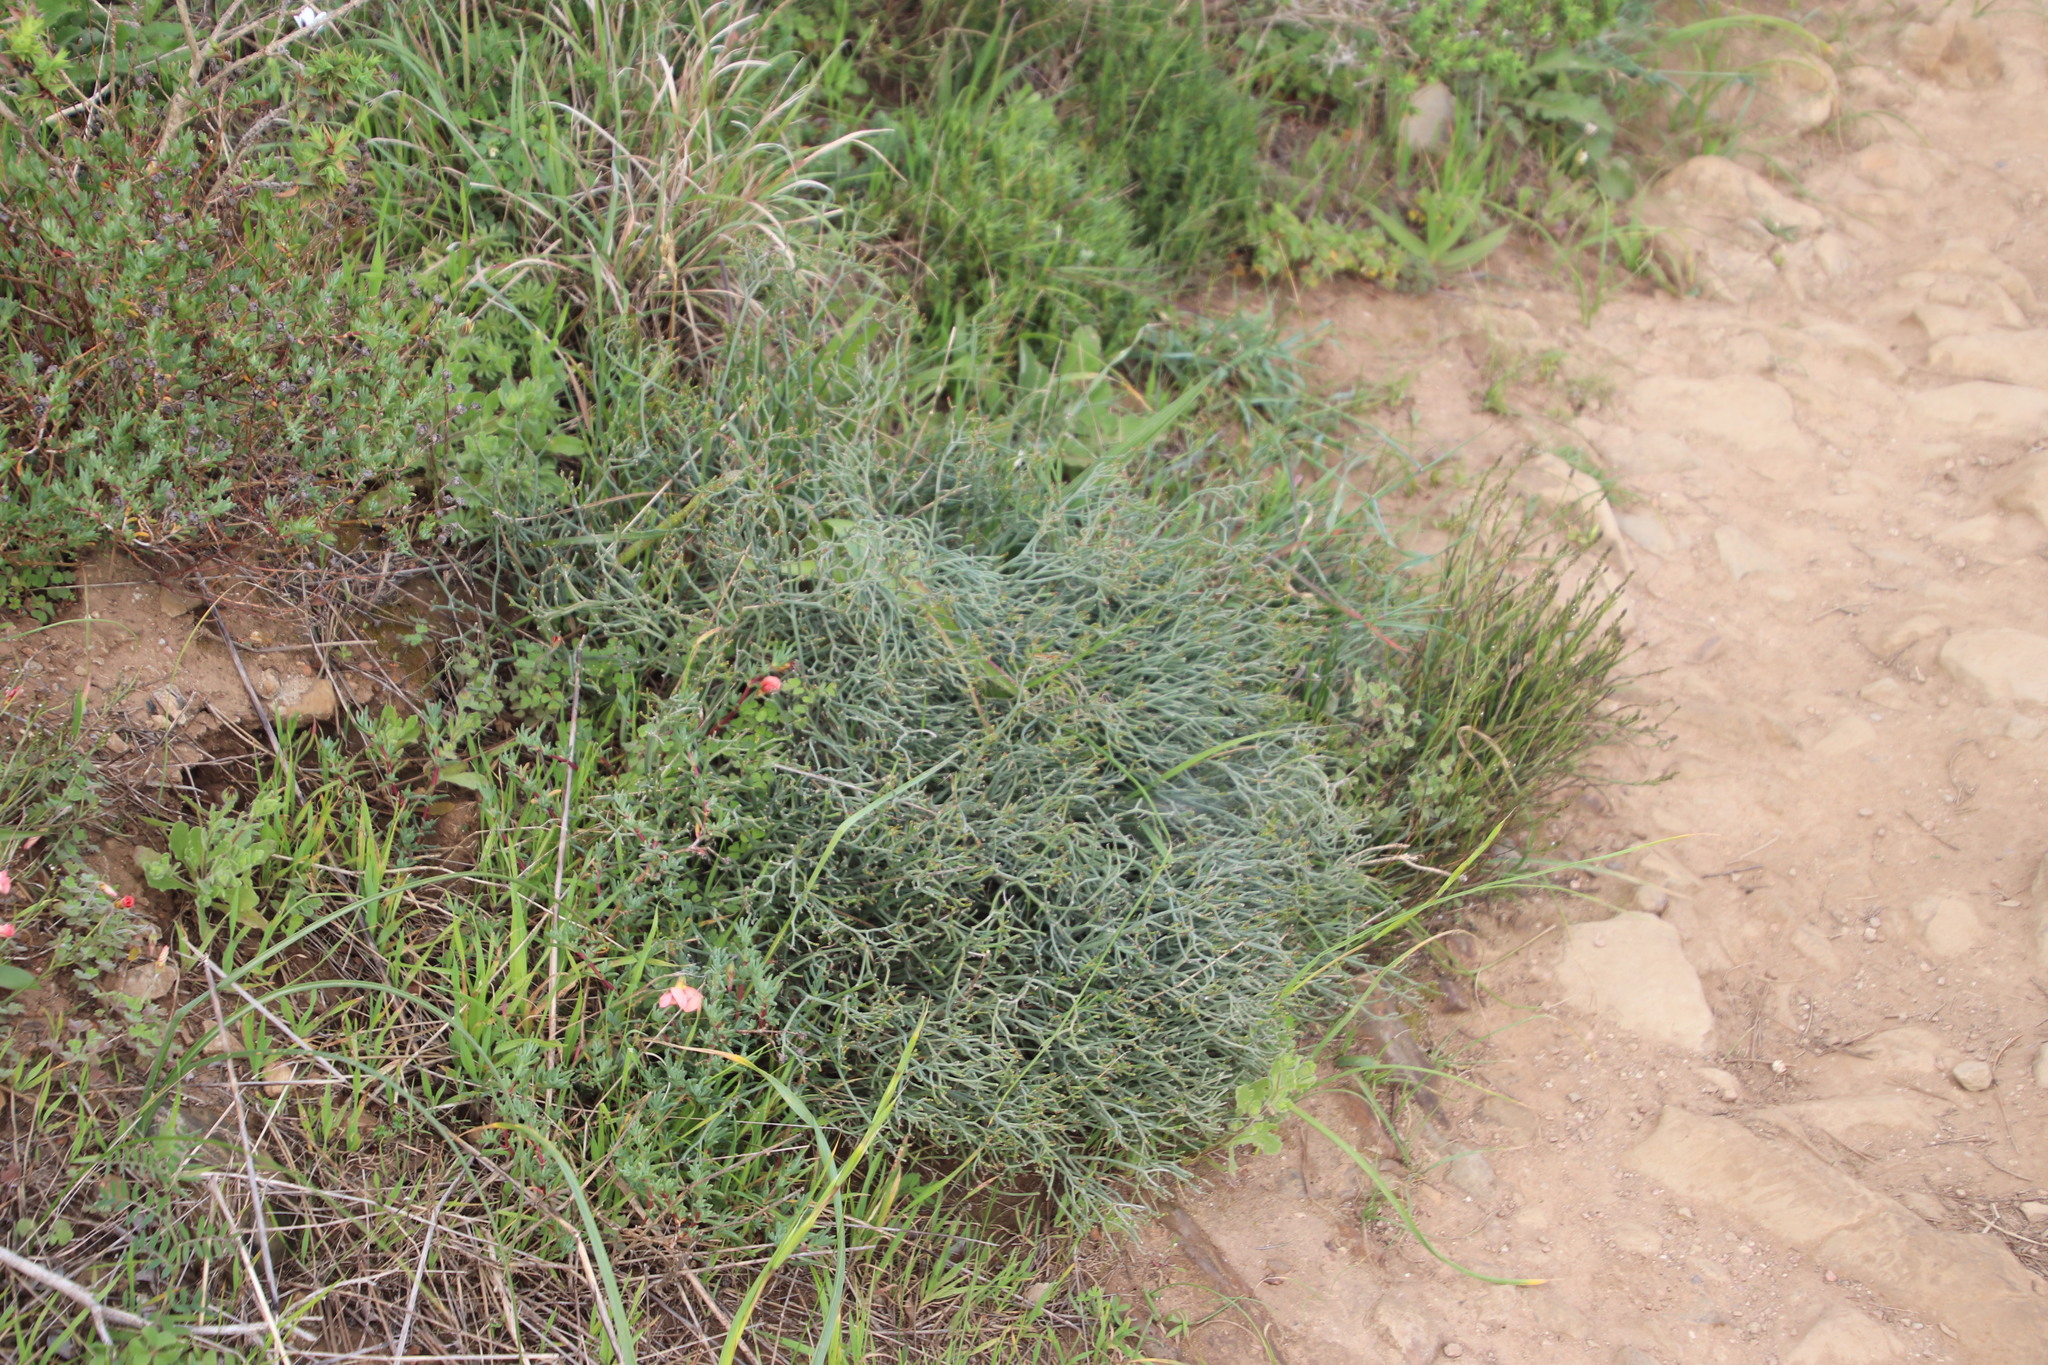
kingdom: Plantae
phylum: Tracheophyta
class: Magnoliopsida
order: Malpighiales
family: Euphorbiaceae
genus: Euphorbia
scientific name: Euphorbia tenax
